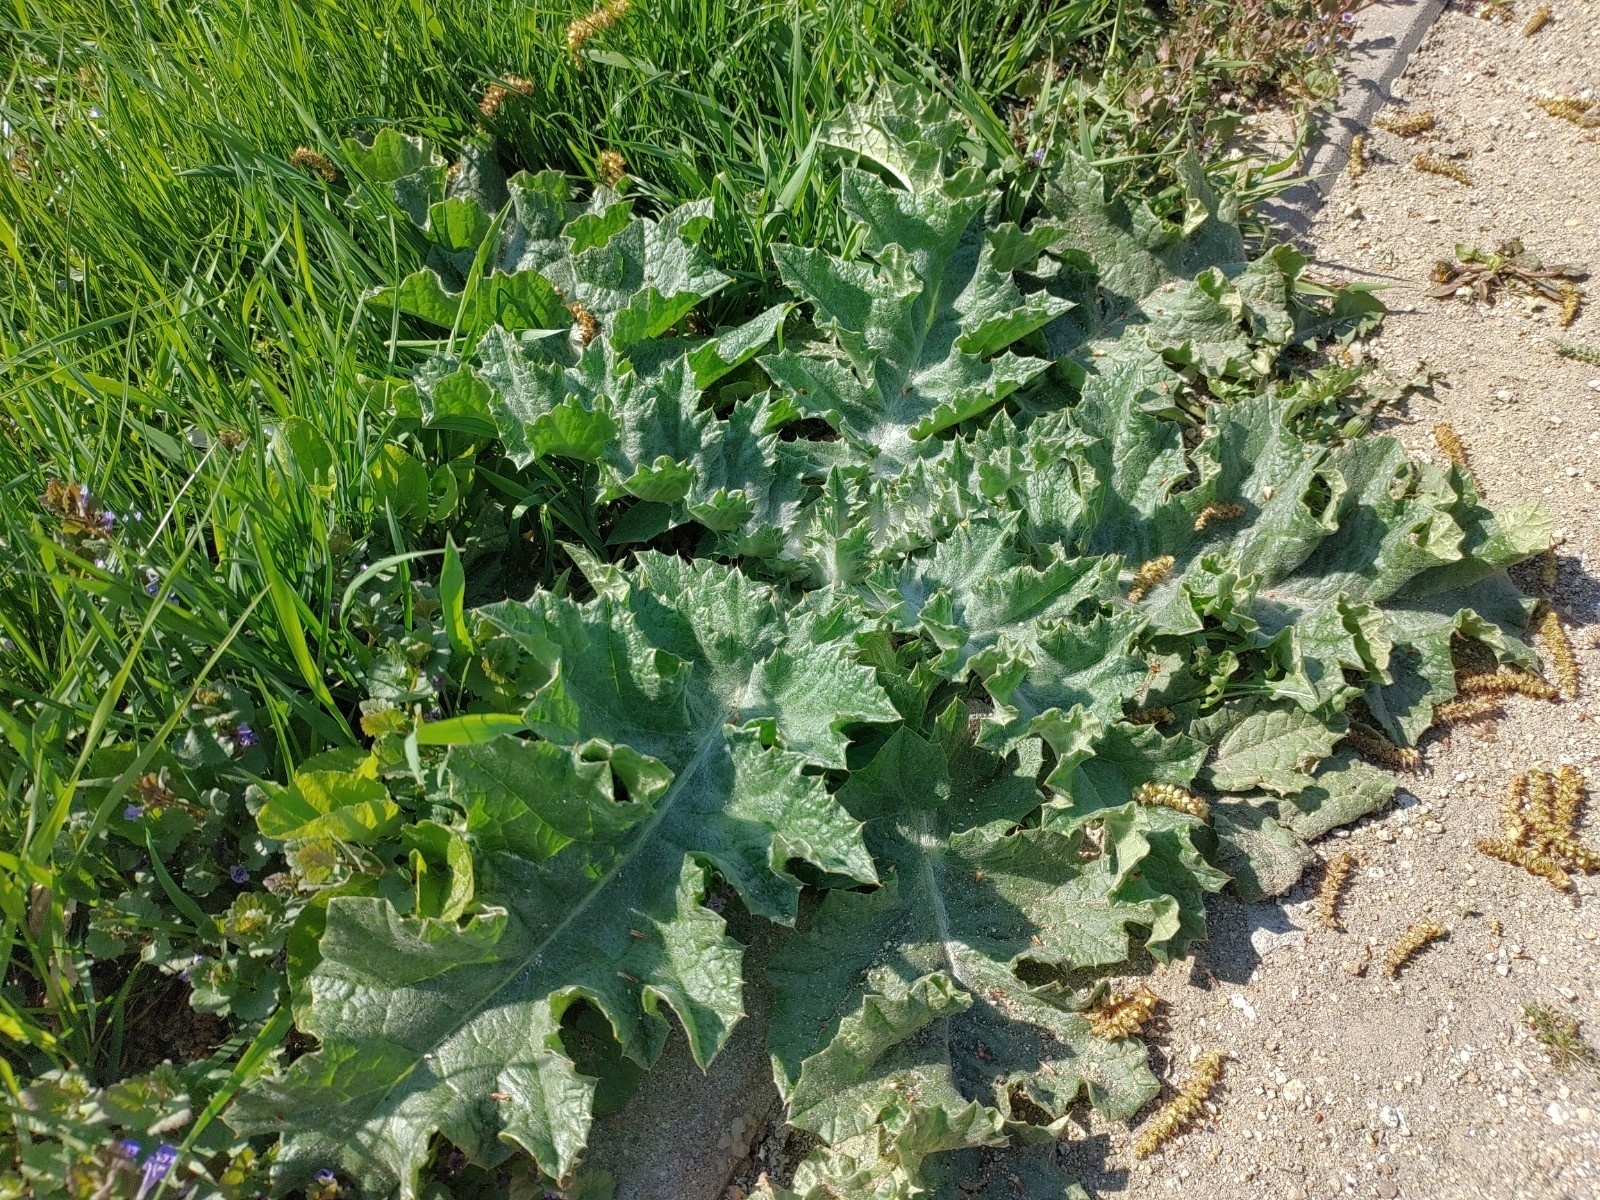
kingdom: Plantae
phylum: Tracheophyta
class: Magnoliopsida
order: Asterales
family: Asteraceae
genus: Onopordum
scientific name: Onopordum acanthium
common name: Scotch thistle
